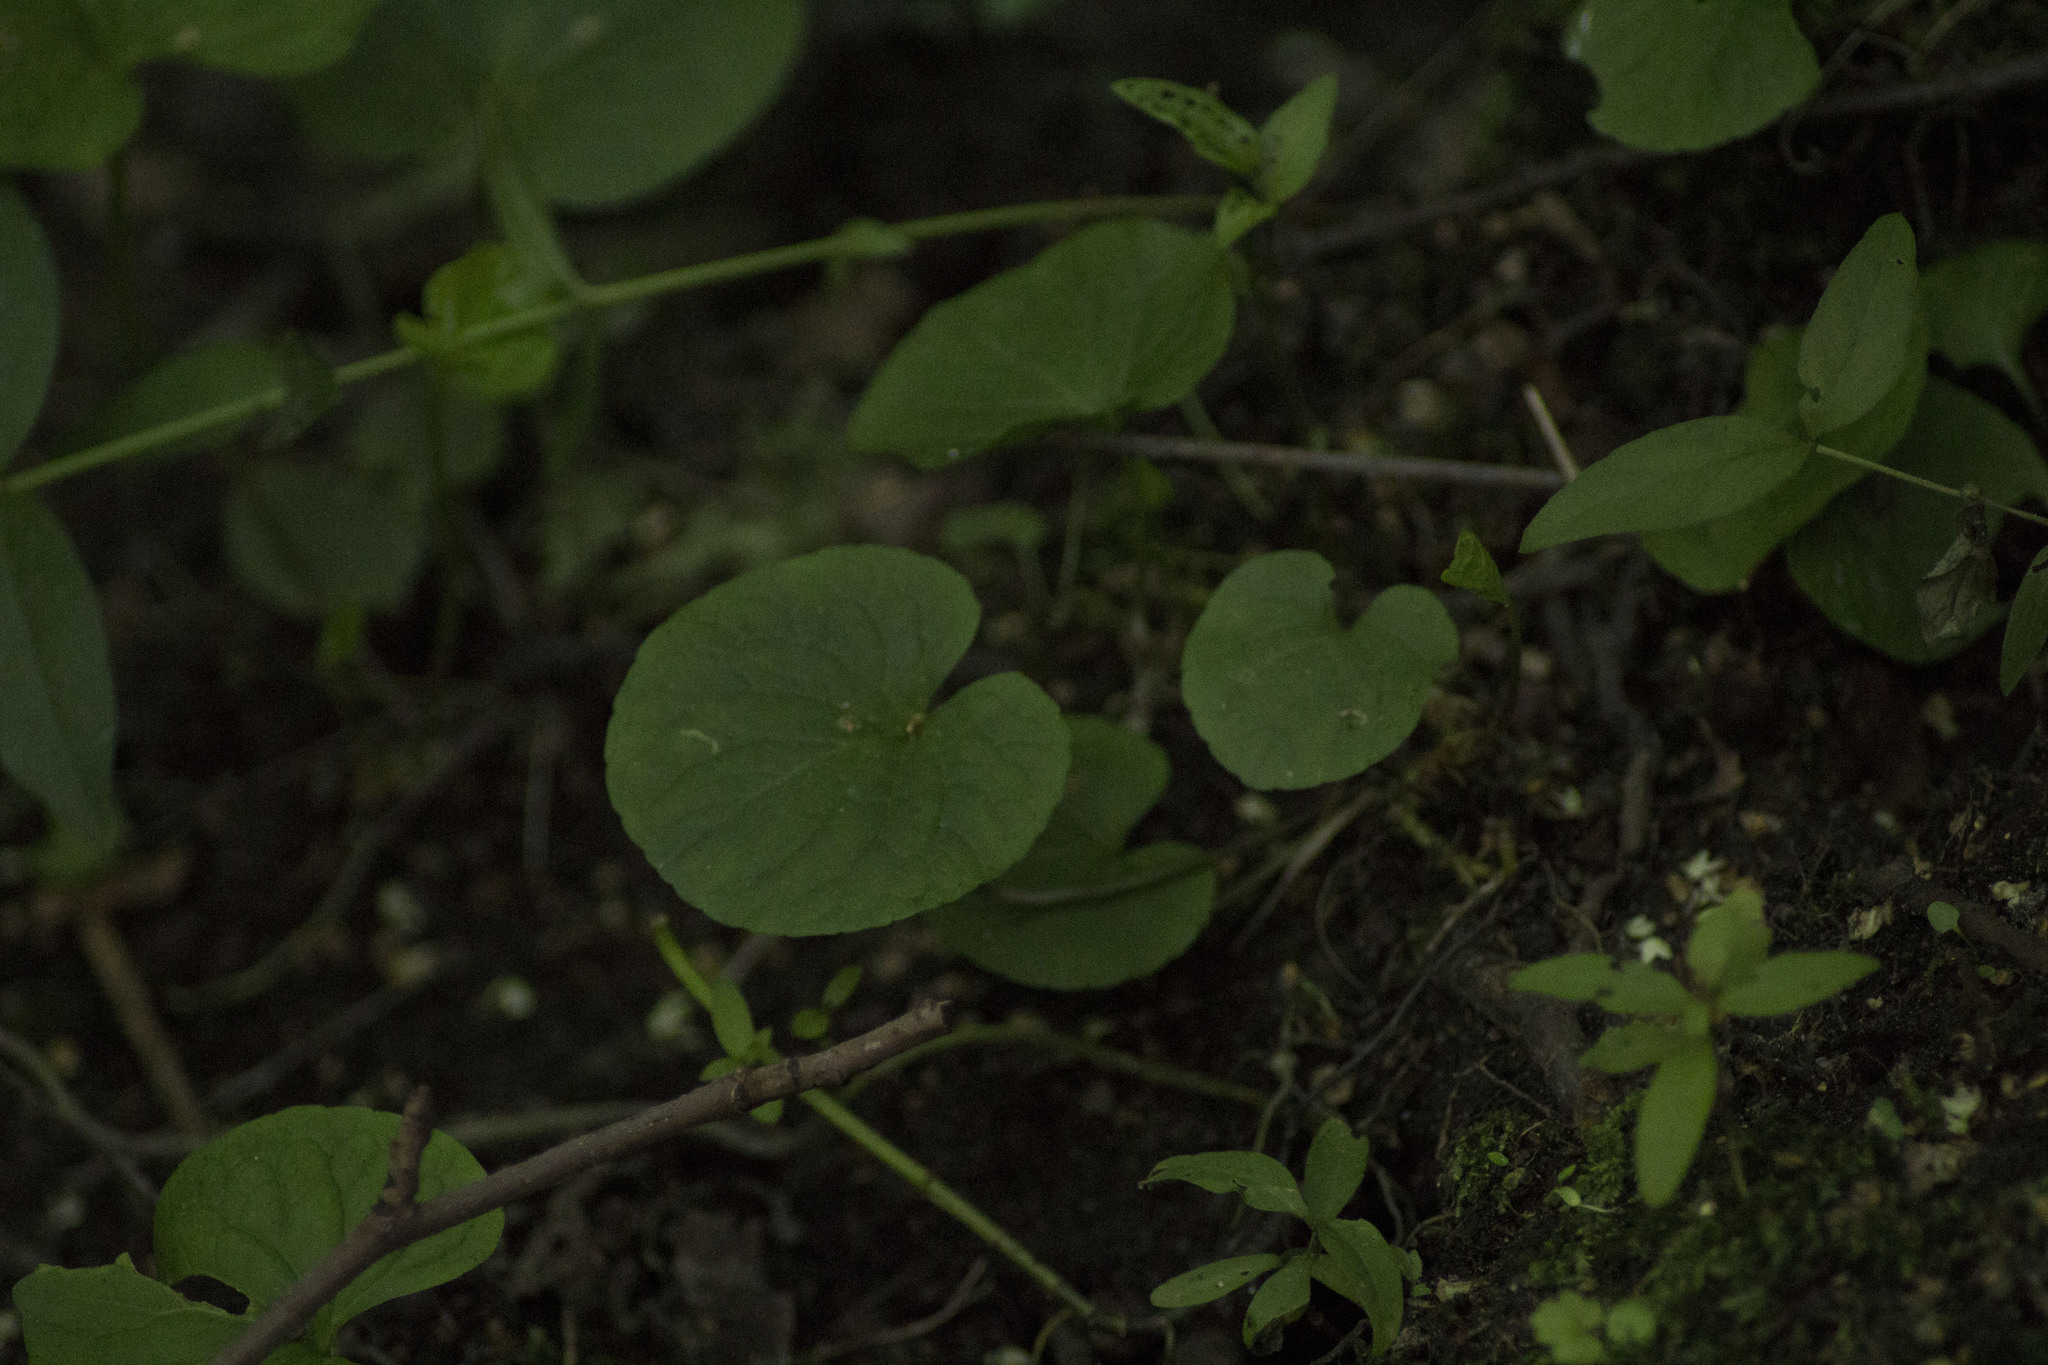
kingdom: Plantae
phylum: Tracheophyta
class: Magnoliopsida
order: Malpighiales
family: Violaceae
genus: Viola
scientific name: Viola palustris
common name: Marsh violet
